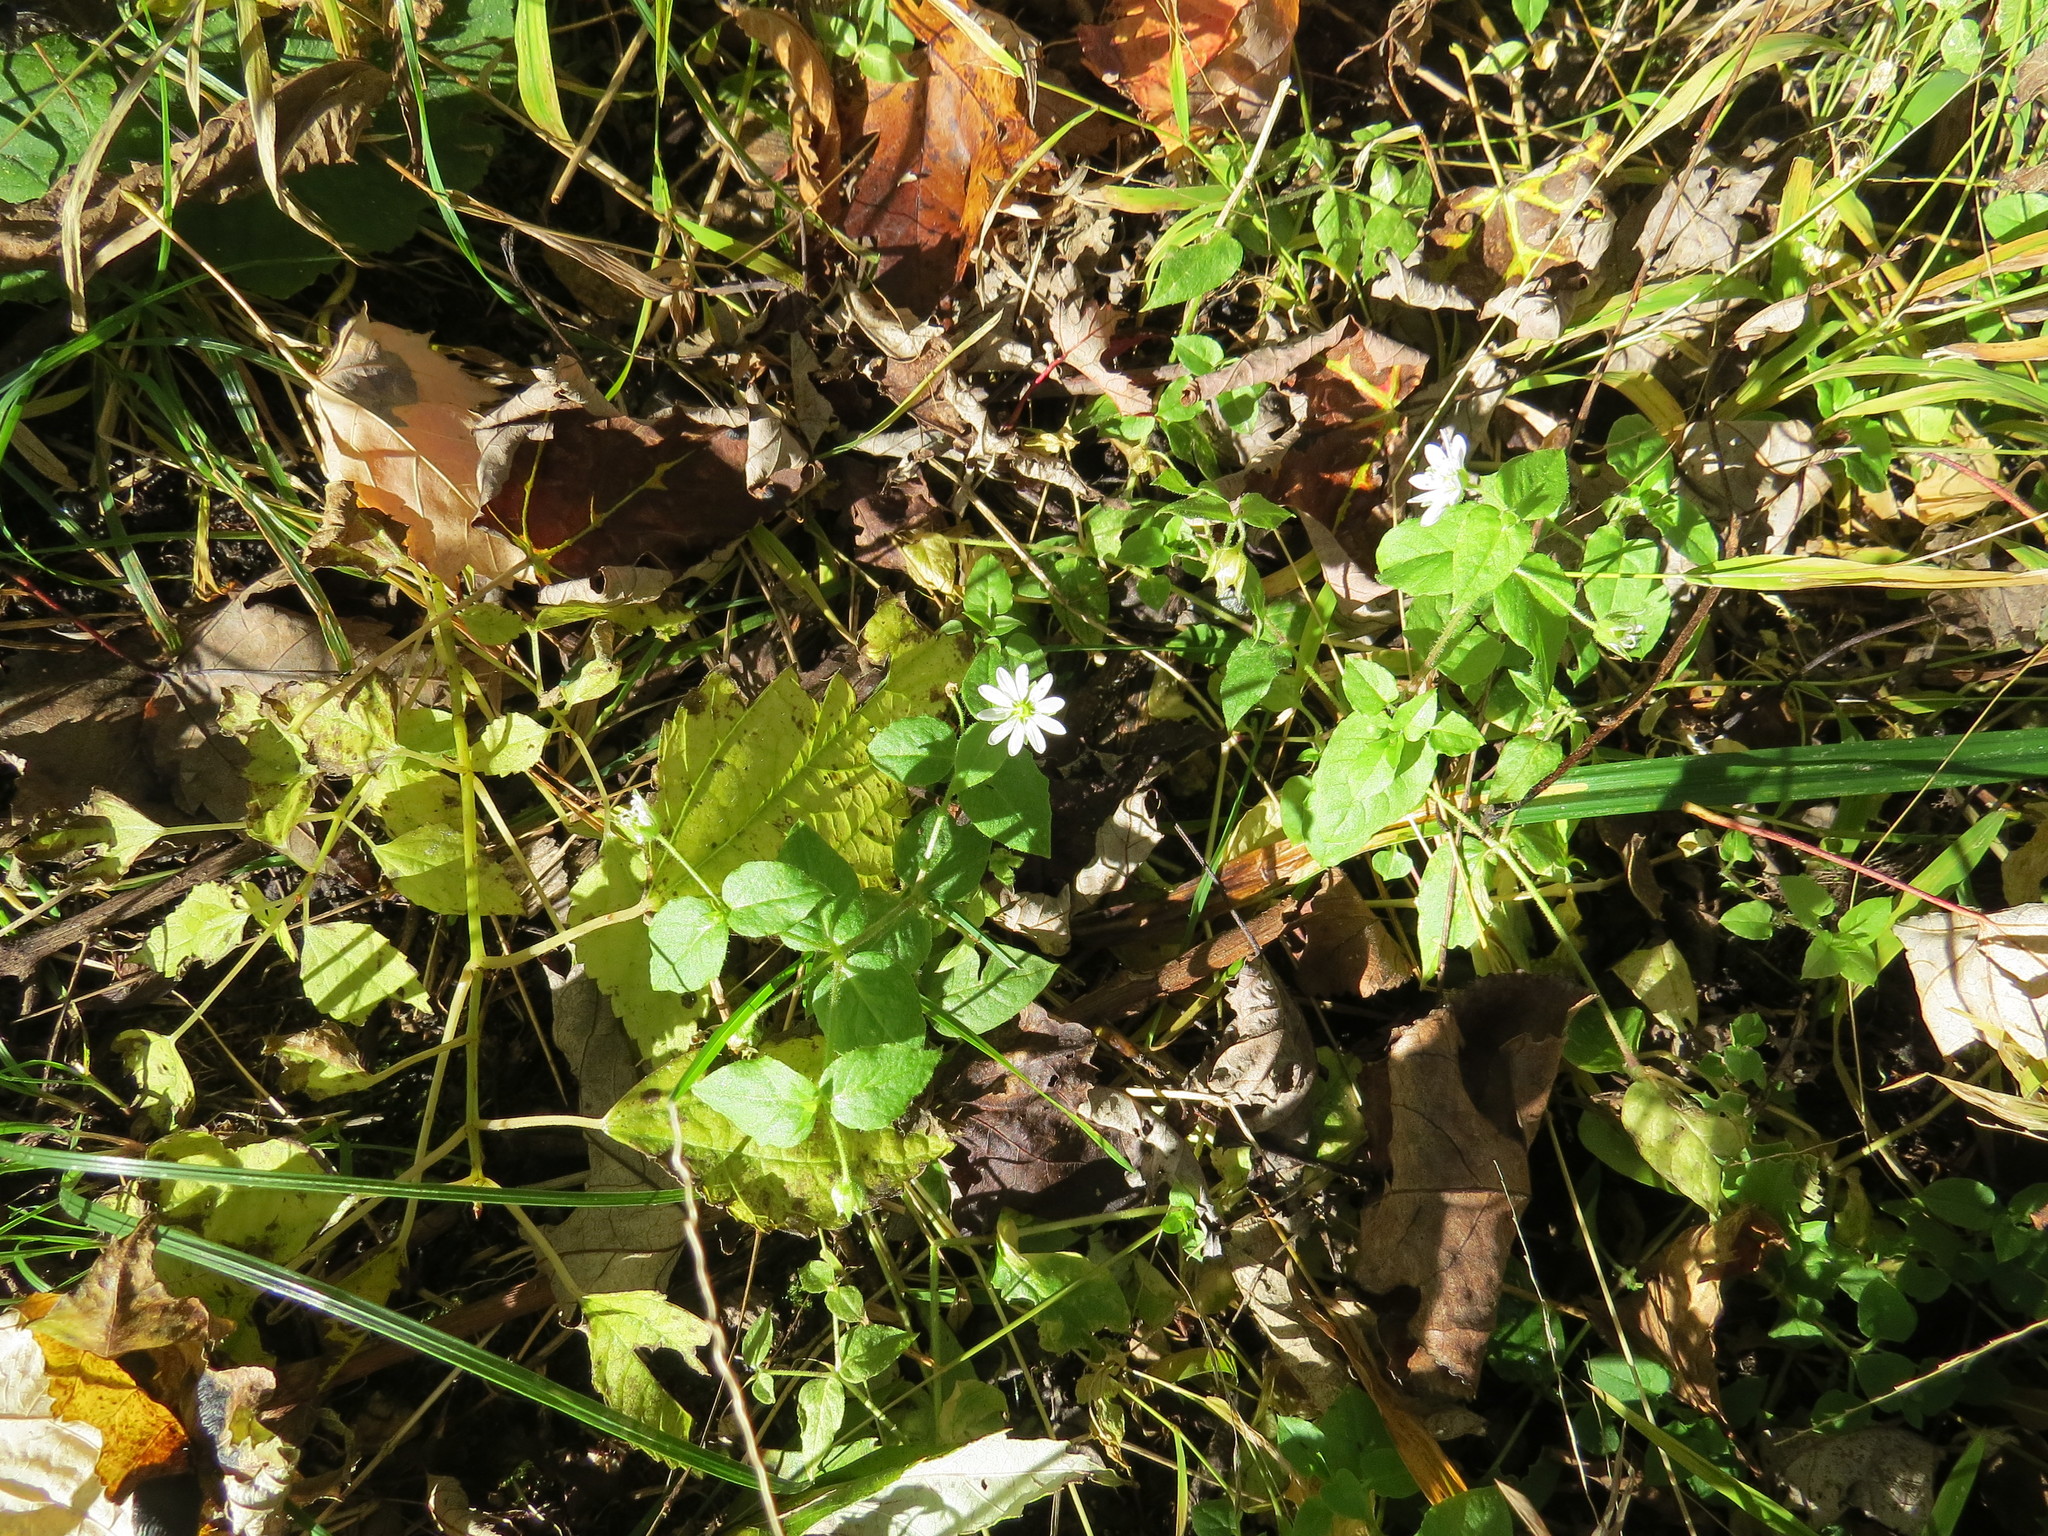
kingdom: Plantae
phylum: Tracheophyta
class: Magnoliopsida
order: Caryophyllales
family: Caryophyllaceae
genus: Stellaria
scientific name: Stellaria aquatica
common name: Water chickweed
